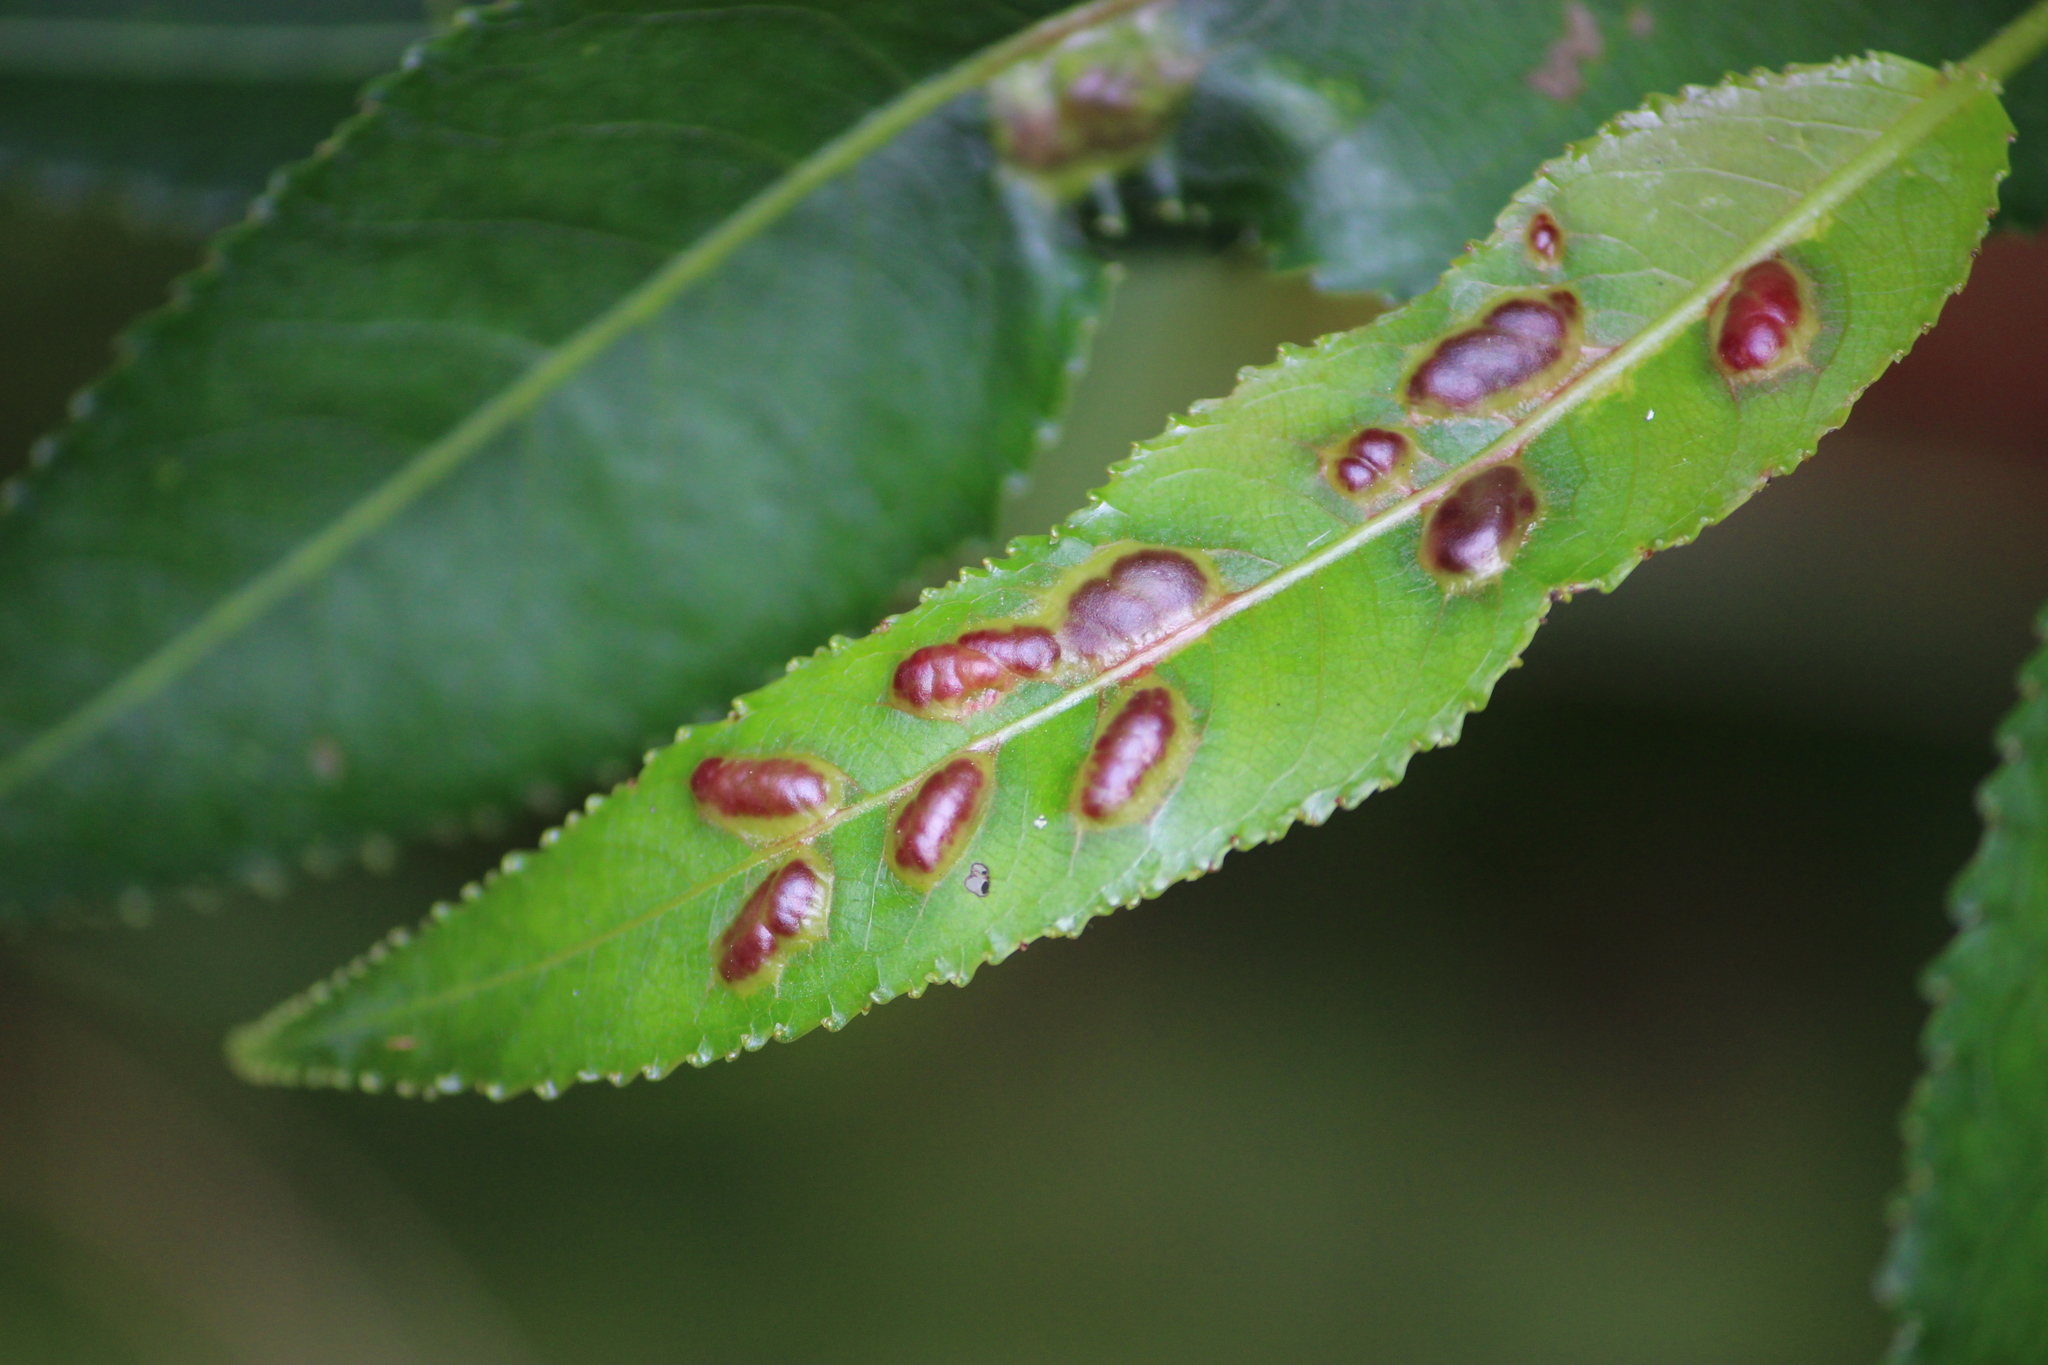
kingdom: Animalia
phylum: Arthropoda
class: Insecta
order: Hymenoptera
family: Tenthredinidae
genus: Pontania
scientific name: Pontania proxima
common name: Common sawfly
